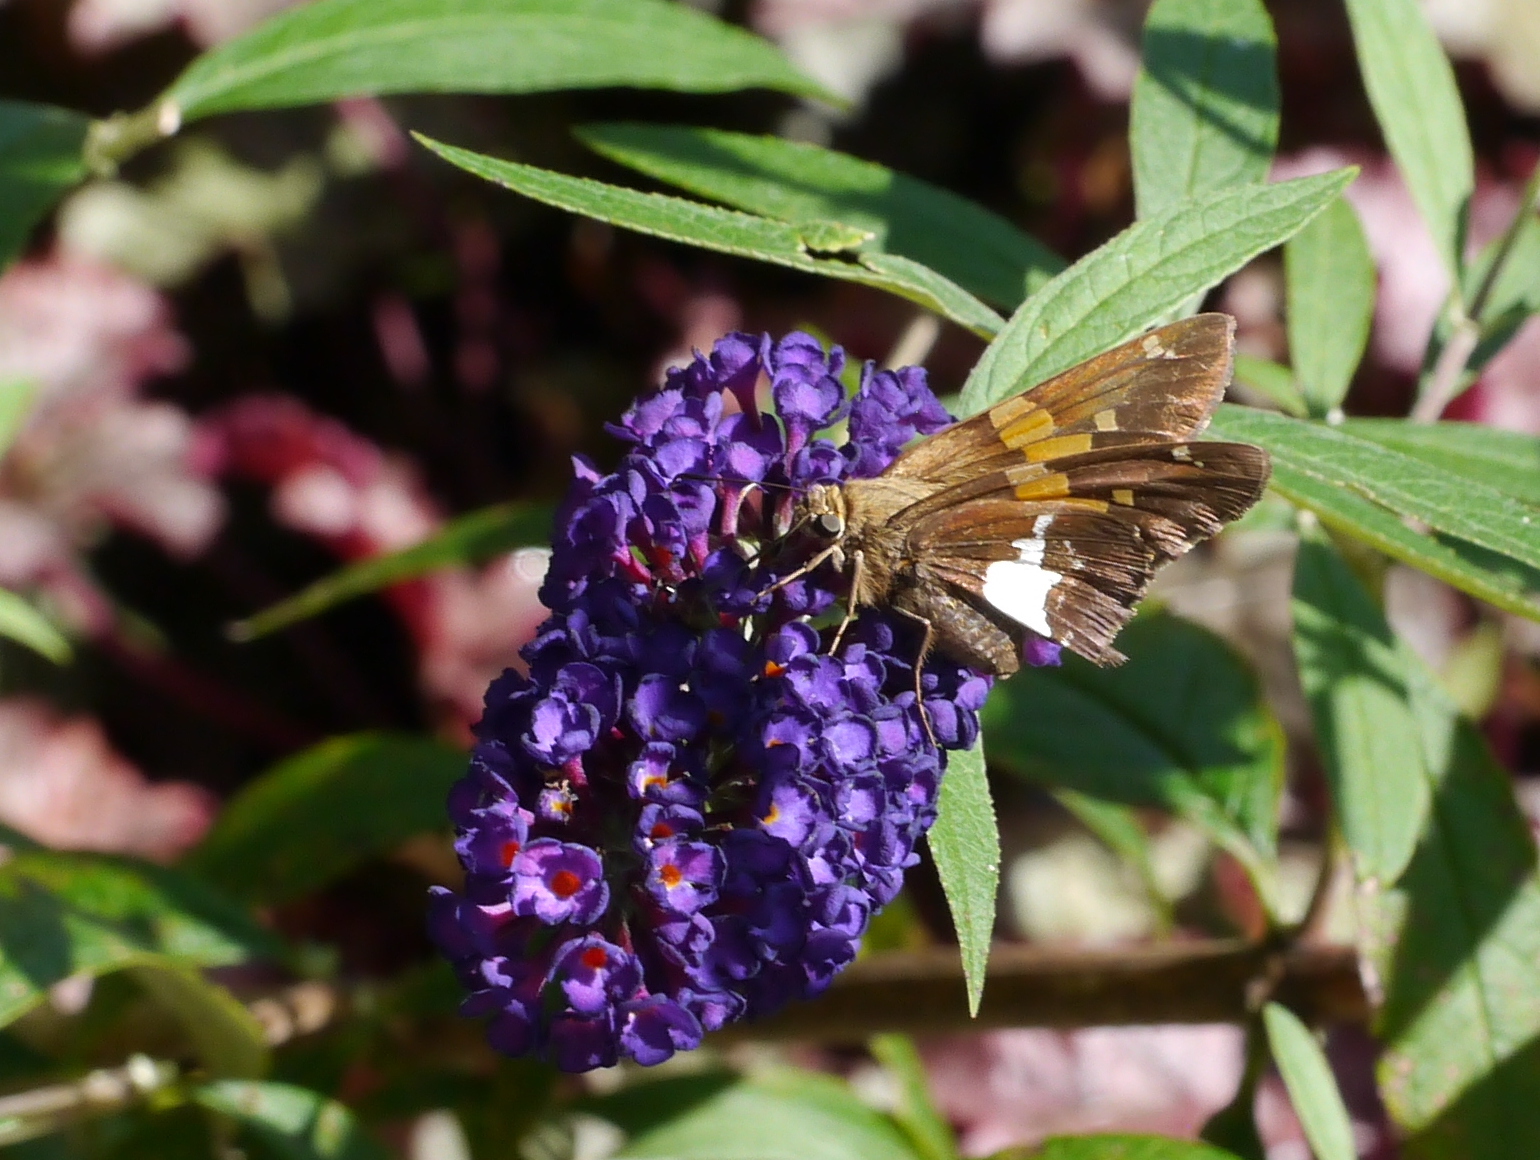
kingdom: Animalia
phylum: Arthropoda
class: Insecta
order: Lepidoptera
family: Hesperiidae
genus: Epargyreus
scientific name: Epargyreus clarus
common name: Silver-spotted skipper
